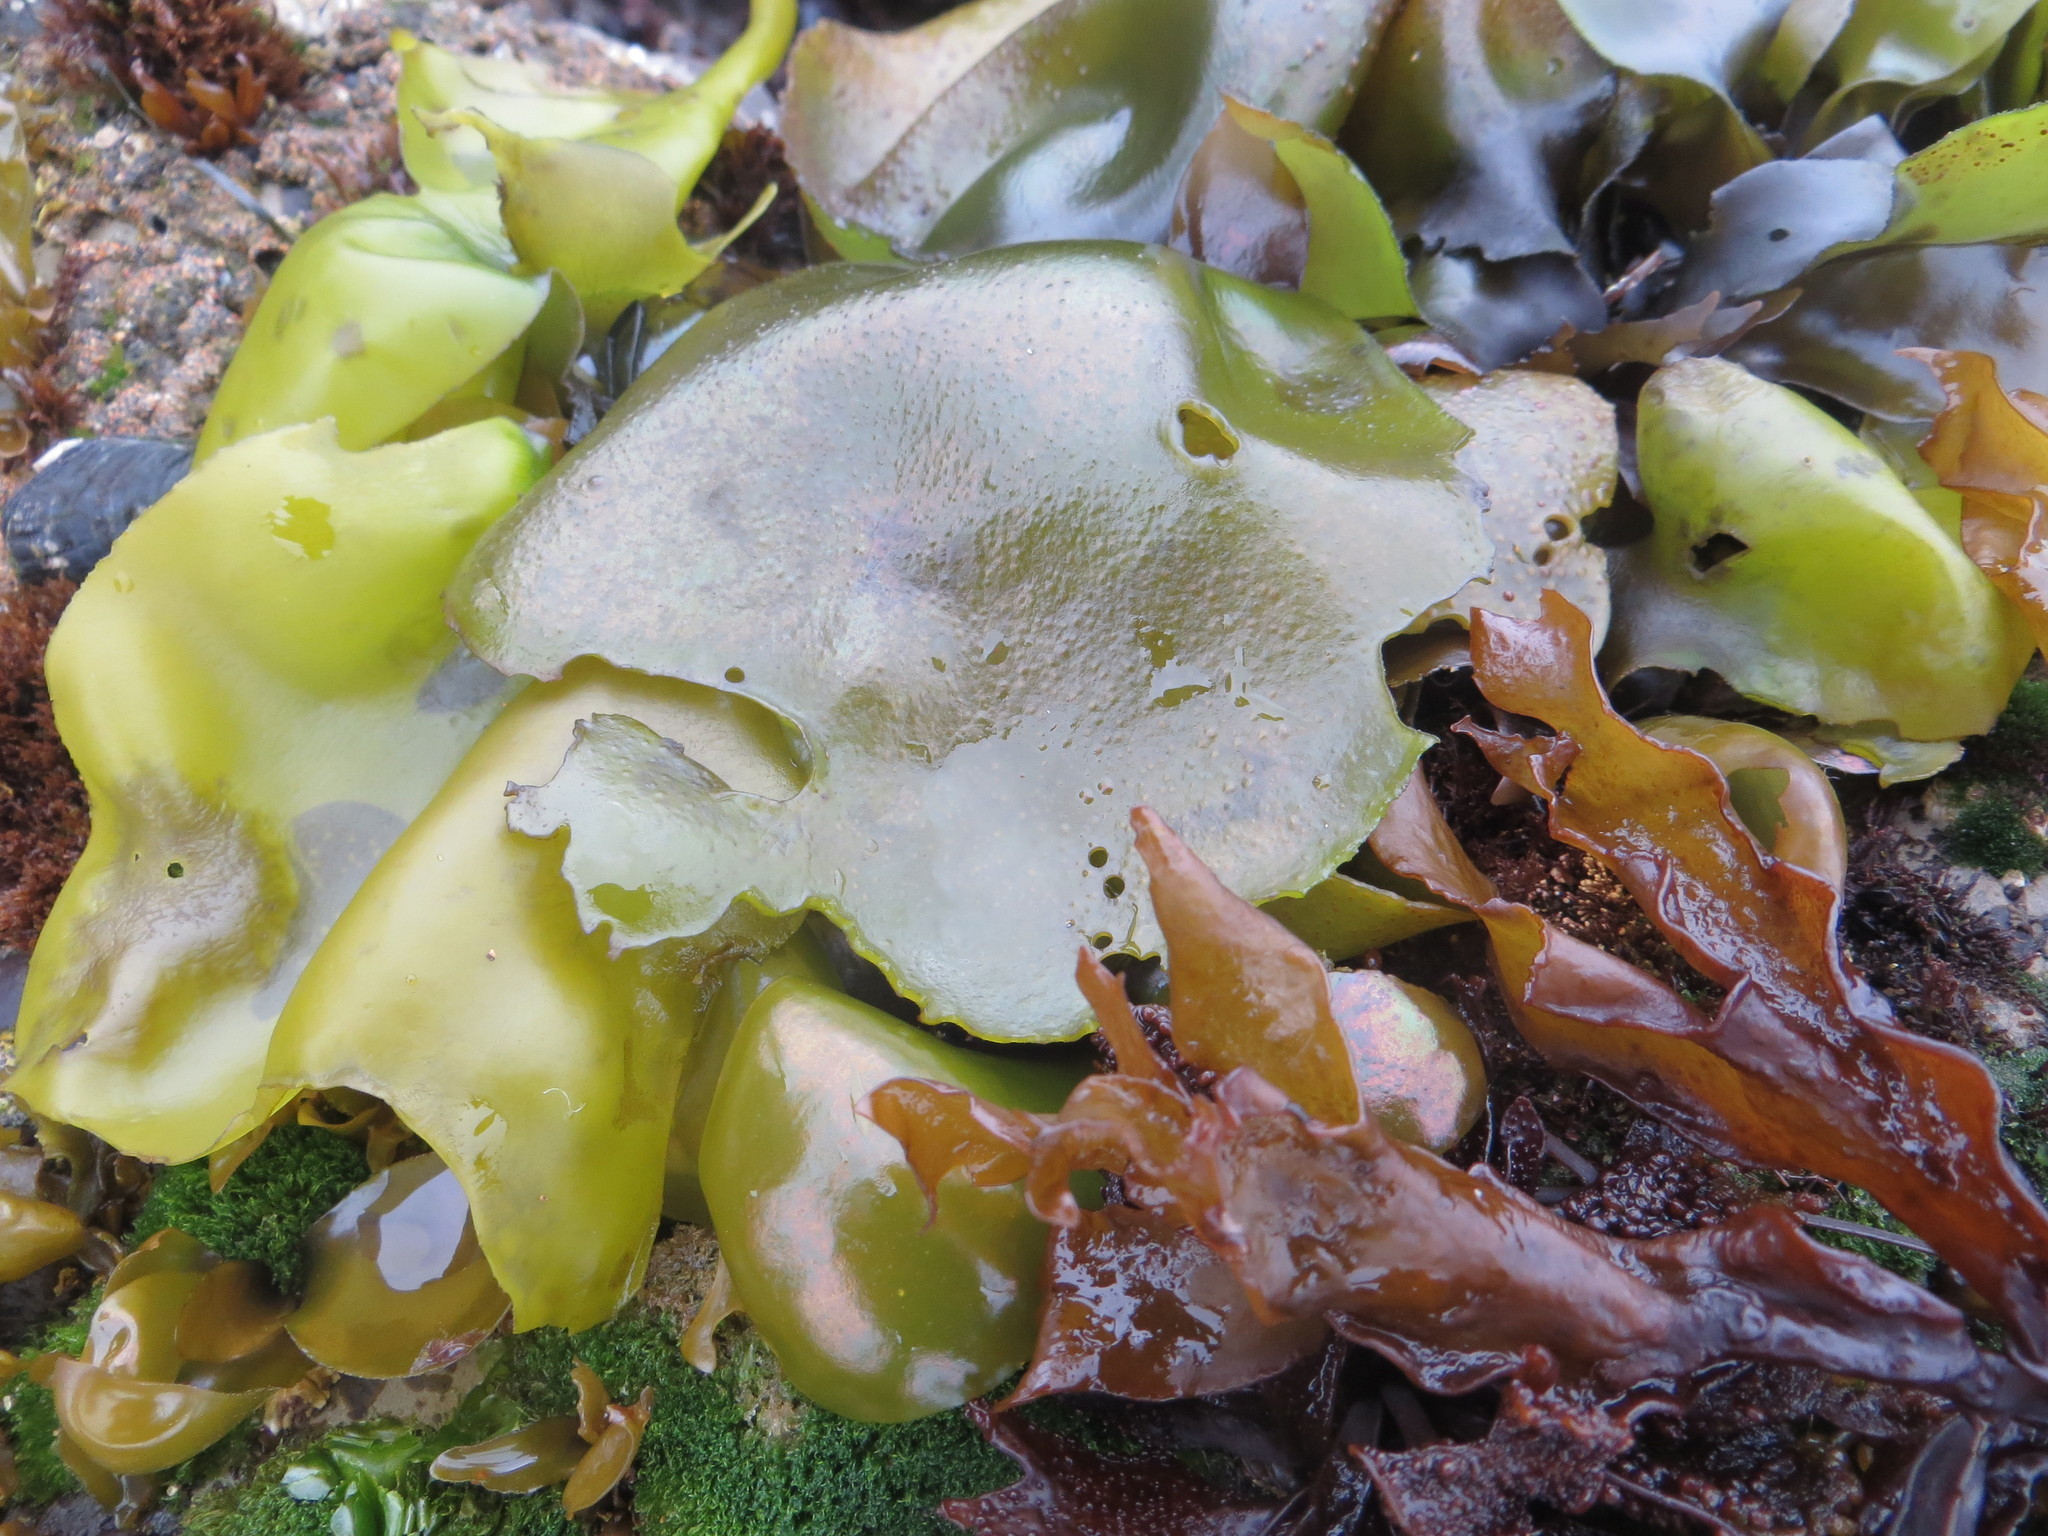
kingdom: Plantae
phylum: Rhodophyta
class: Florideophyceae
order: Gigartinales
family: Gigartinaceae
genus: Mazzaella
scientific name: Mazzaella flaccida
